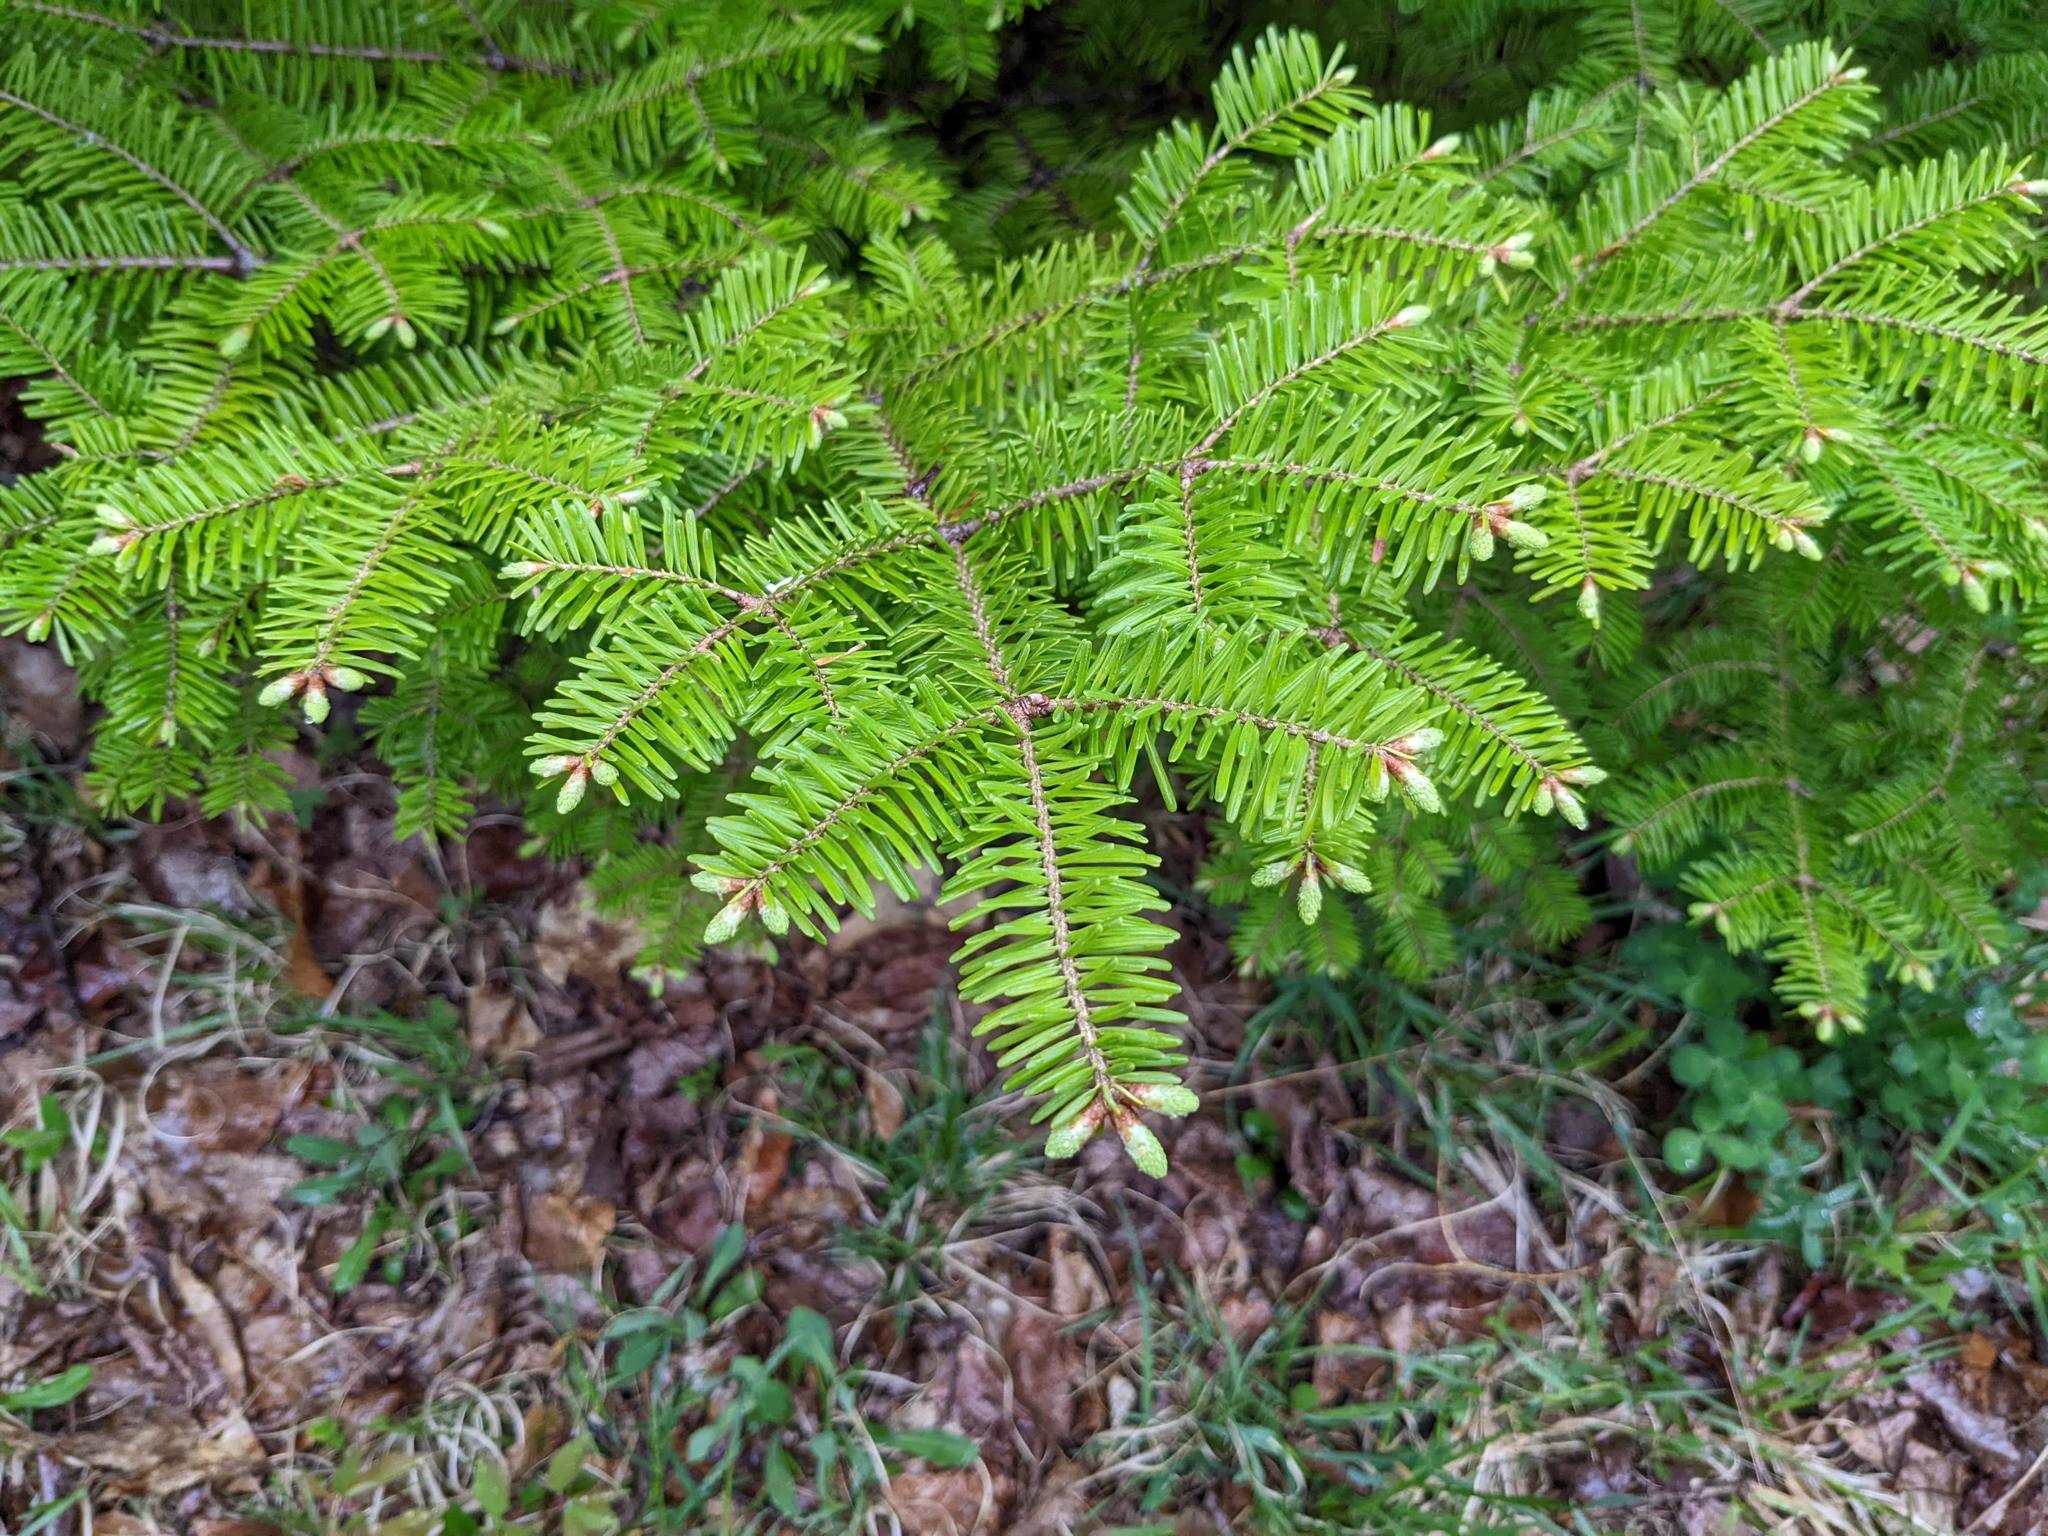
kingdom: Plantae
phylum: Tracheophyta
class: Pinopsida
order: Pinales
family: Pinaceae
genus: Abies
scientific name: Abies balsamea
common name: Balsam fir
